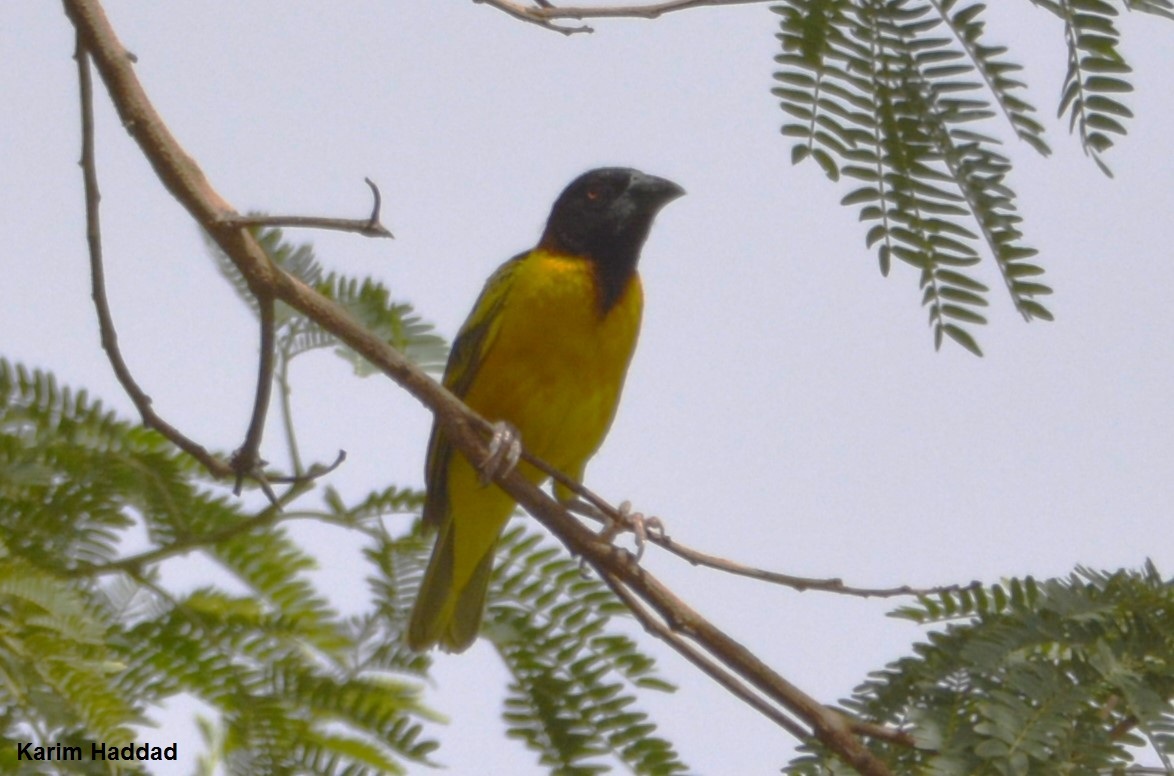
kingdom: Animalia
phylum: Chordata
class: Aves
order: Passeriformes
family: Ploceidae
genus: Ploceus
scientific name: Ploceus cucullatus
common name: Village weaver
